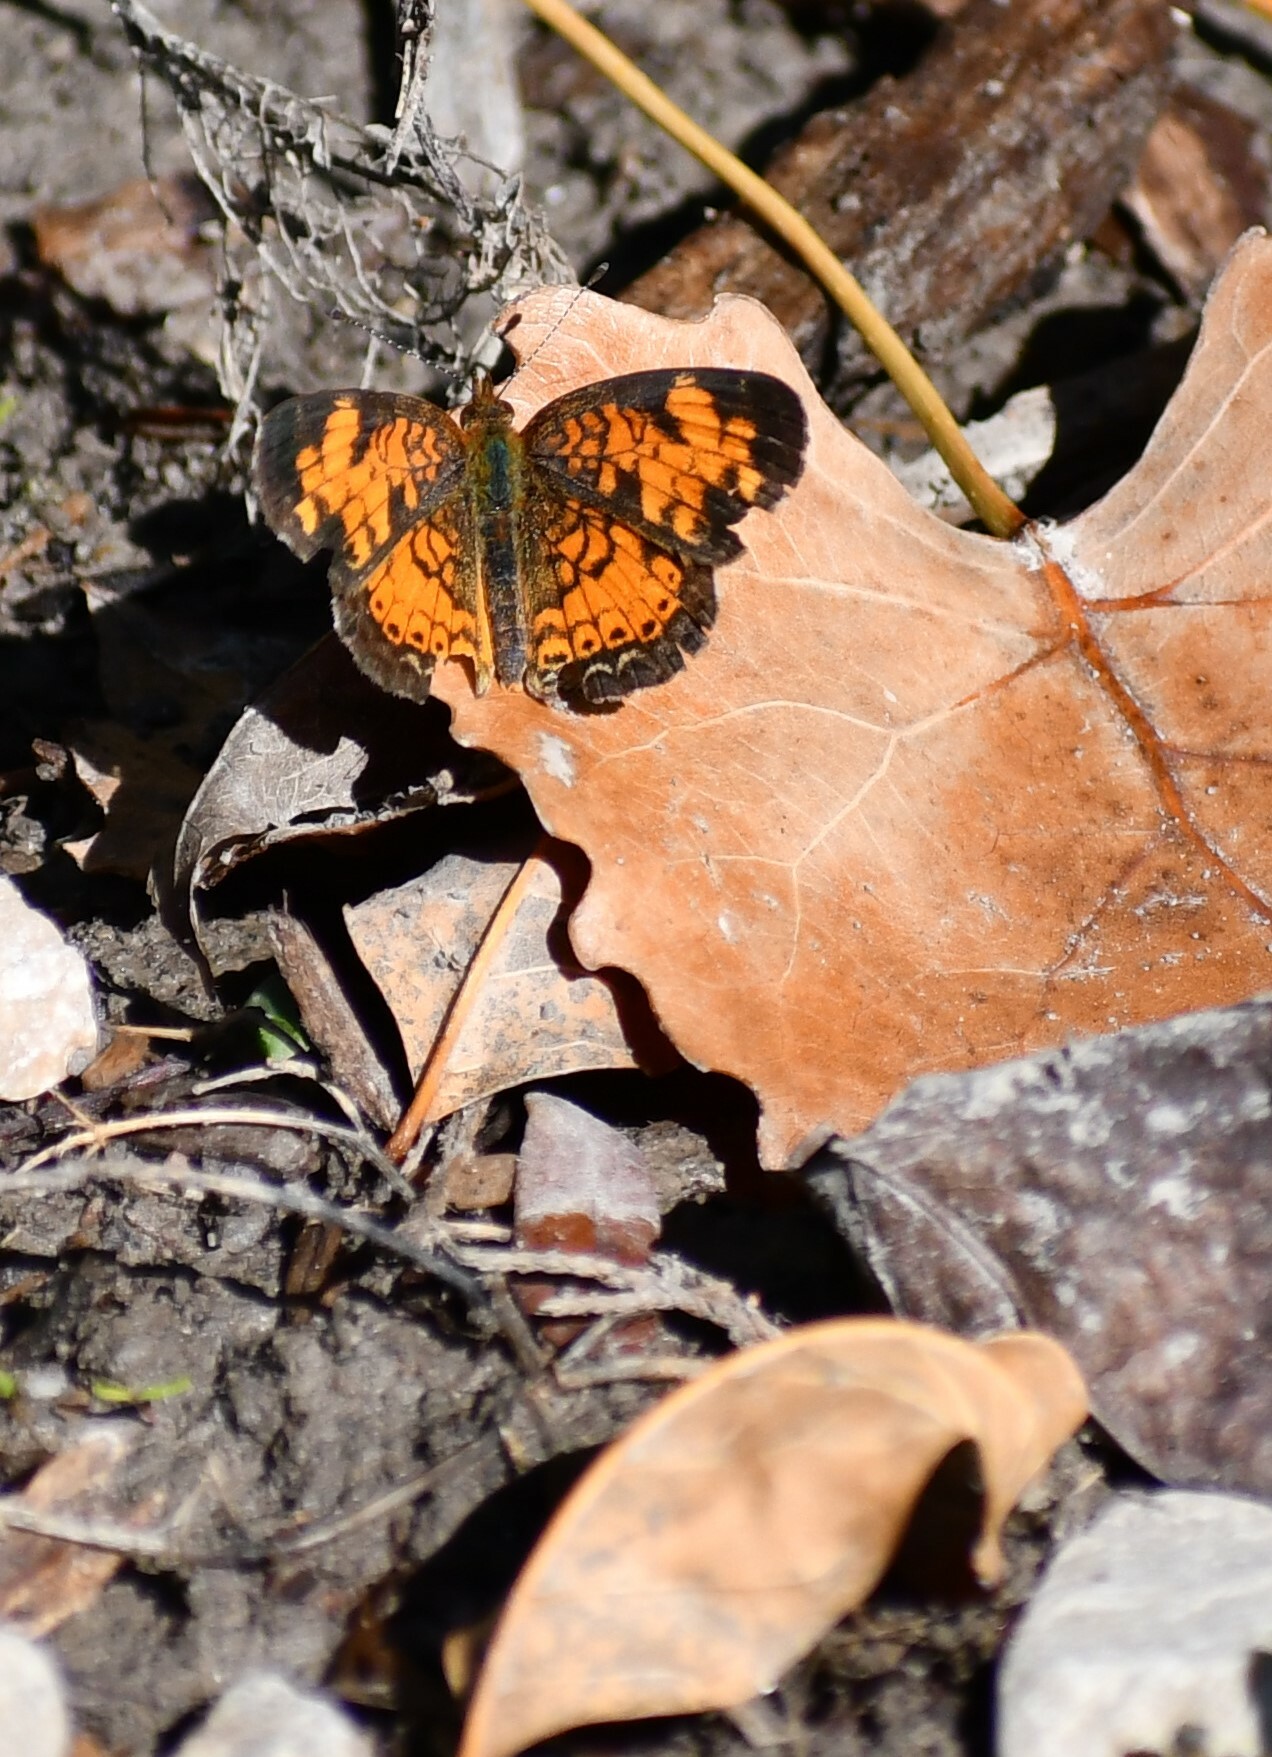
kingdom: Animalia
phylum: Arthropoda
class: Insecta
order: Lepidoptera
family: Nymphalidae
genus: Phyciodes
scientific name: Phyciodes tharos
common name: Pearl crescent
